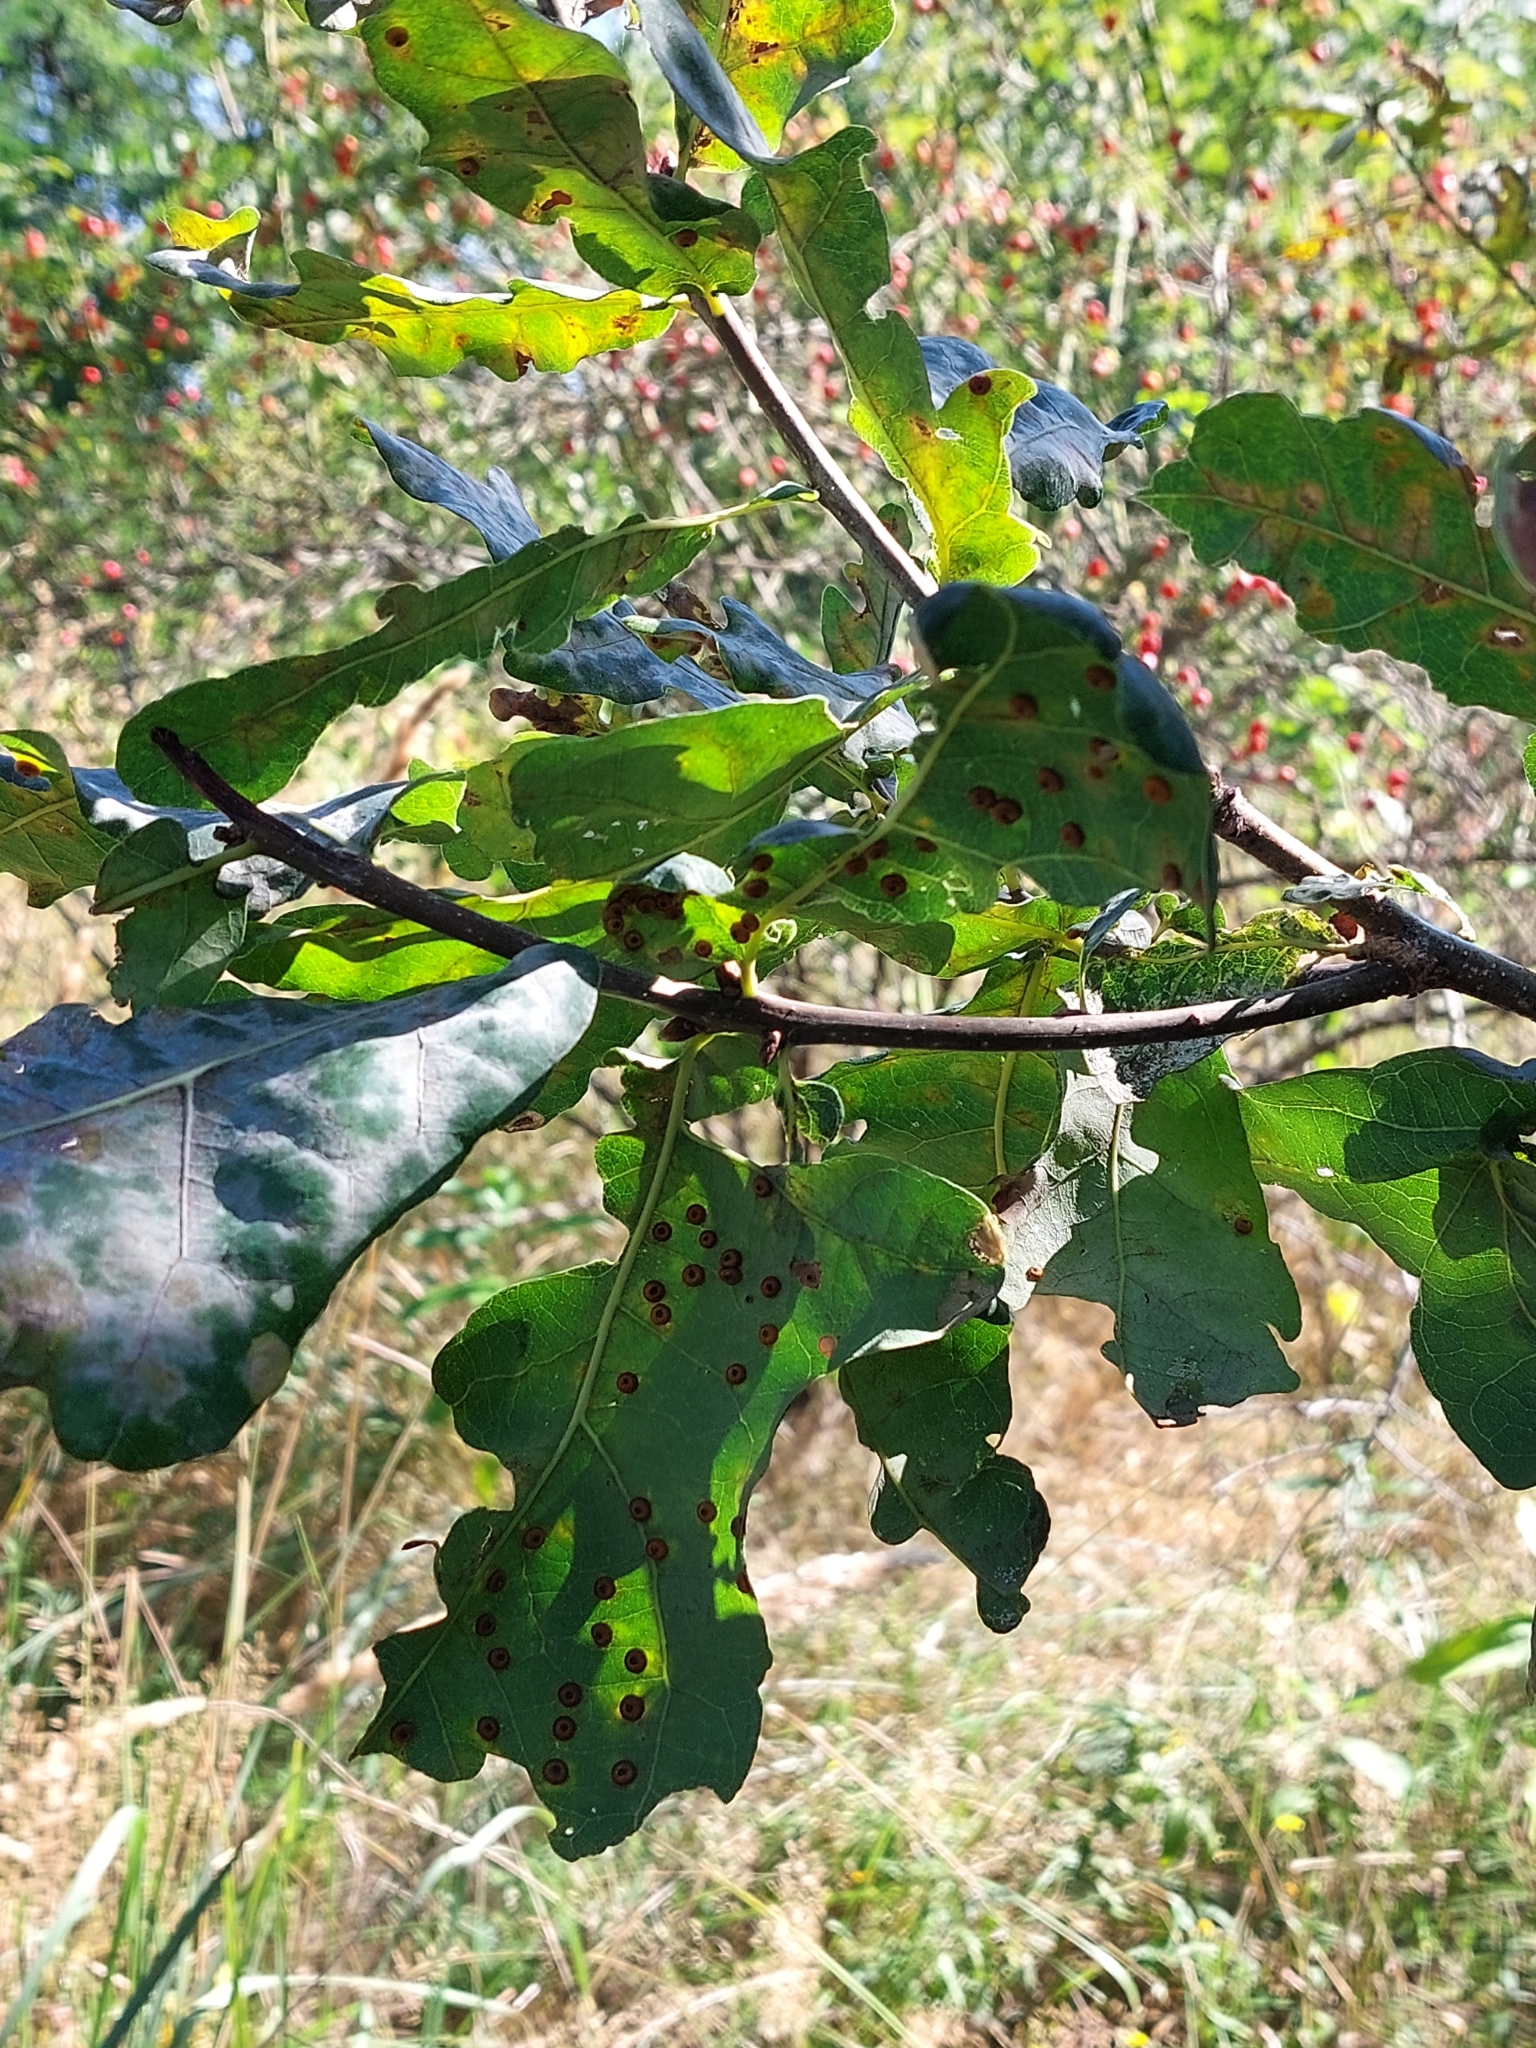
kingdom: Animalia
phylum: Arthropoda
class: Insecta
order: Hymenoptera
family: Cynipidae
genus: Neuroterus
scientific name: Neuroterus numismalis
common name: Silk-button spangle gall
